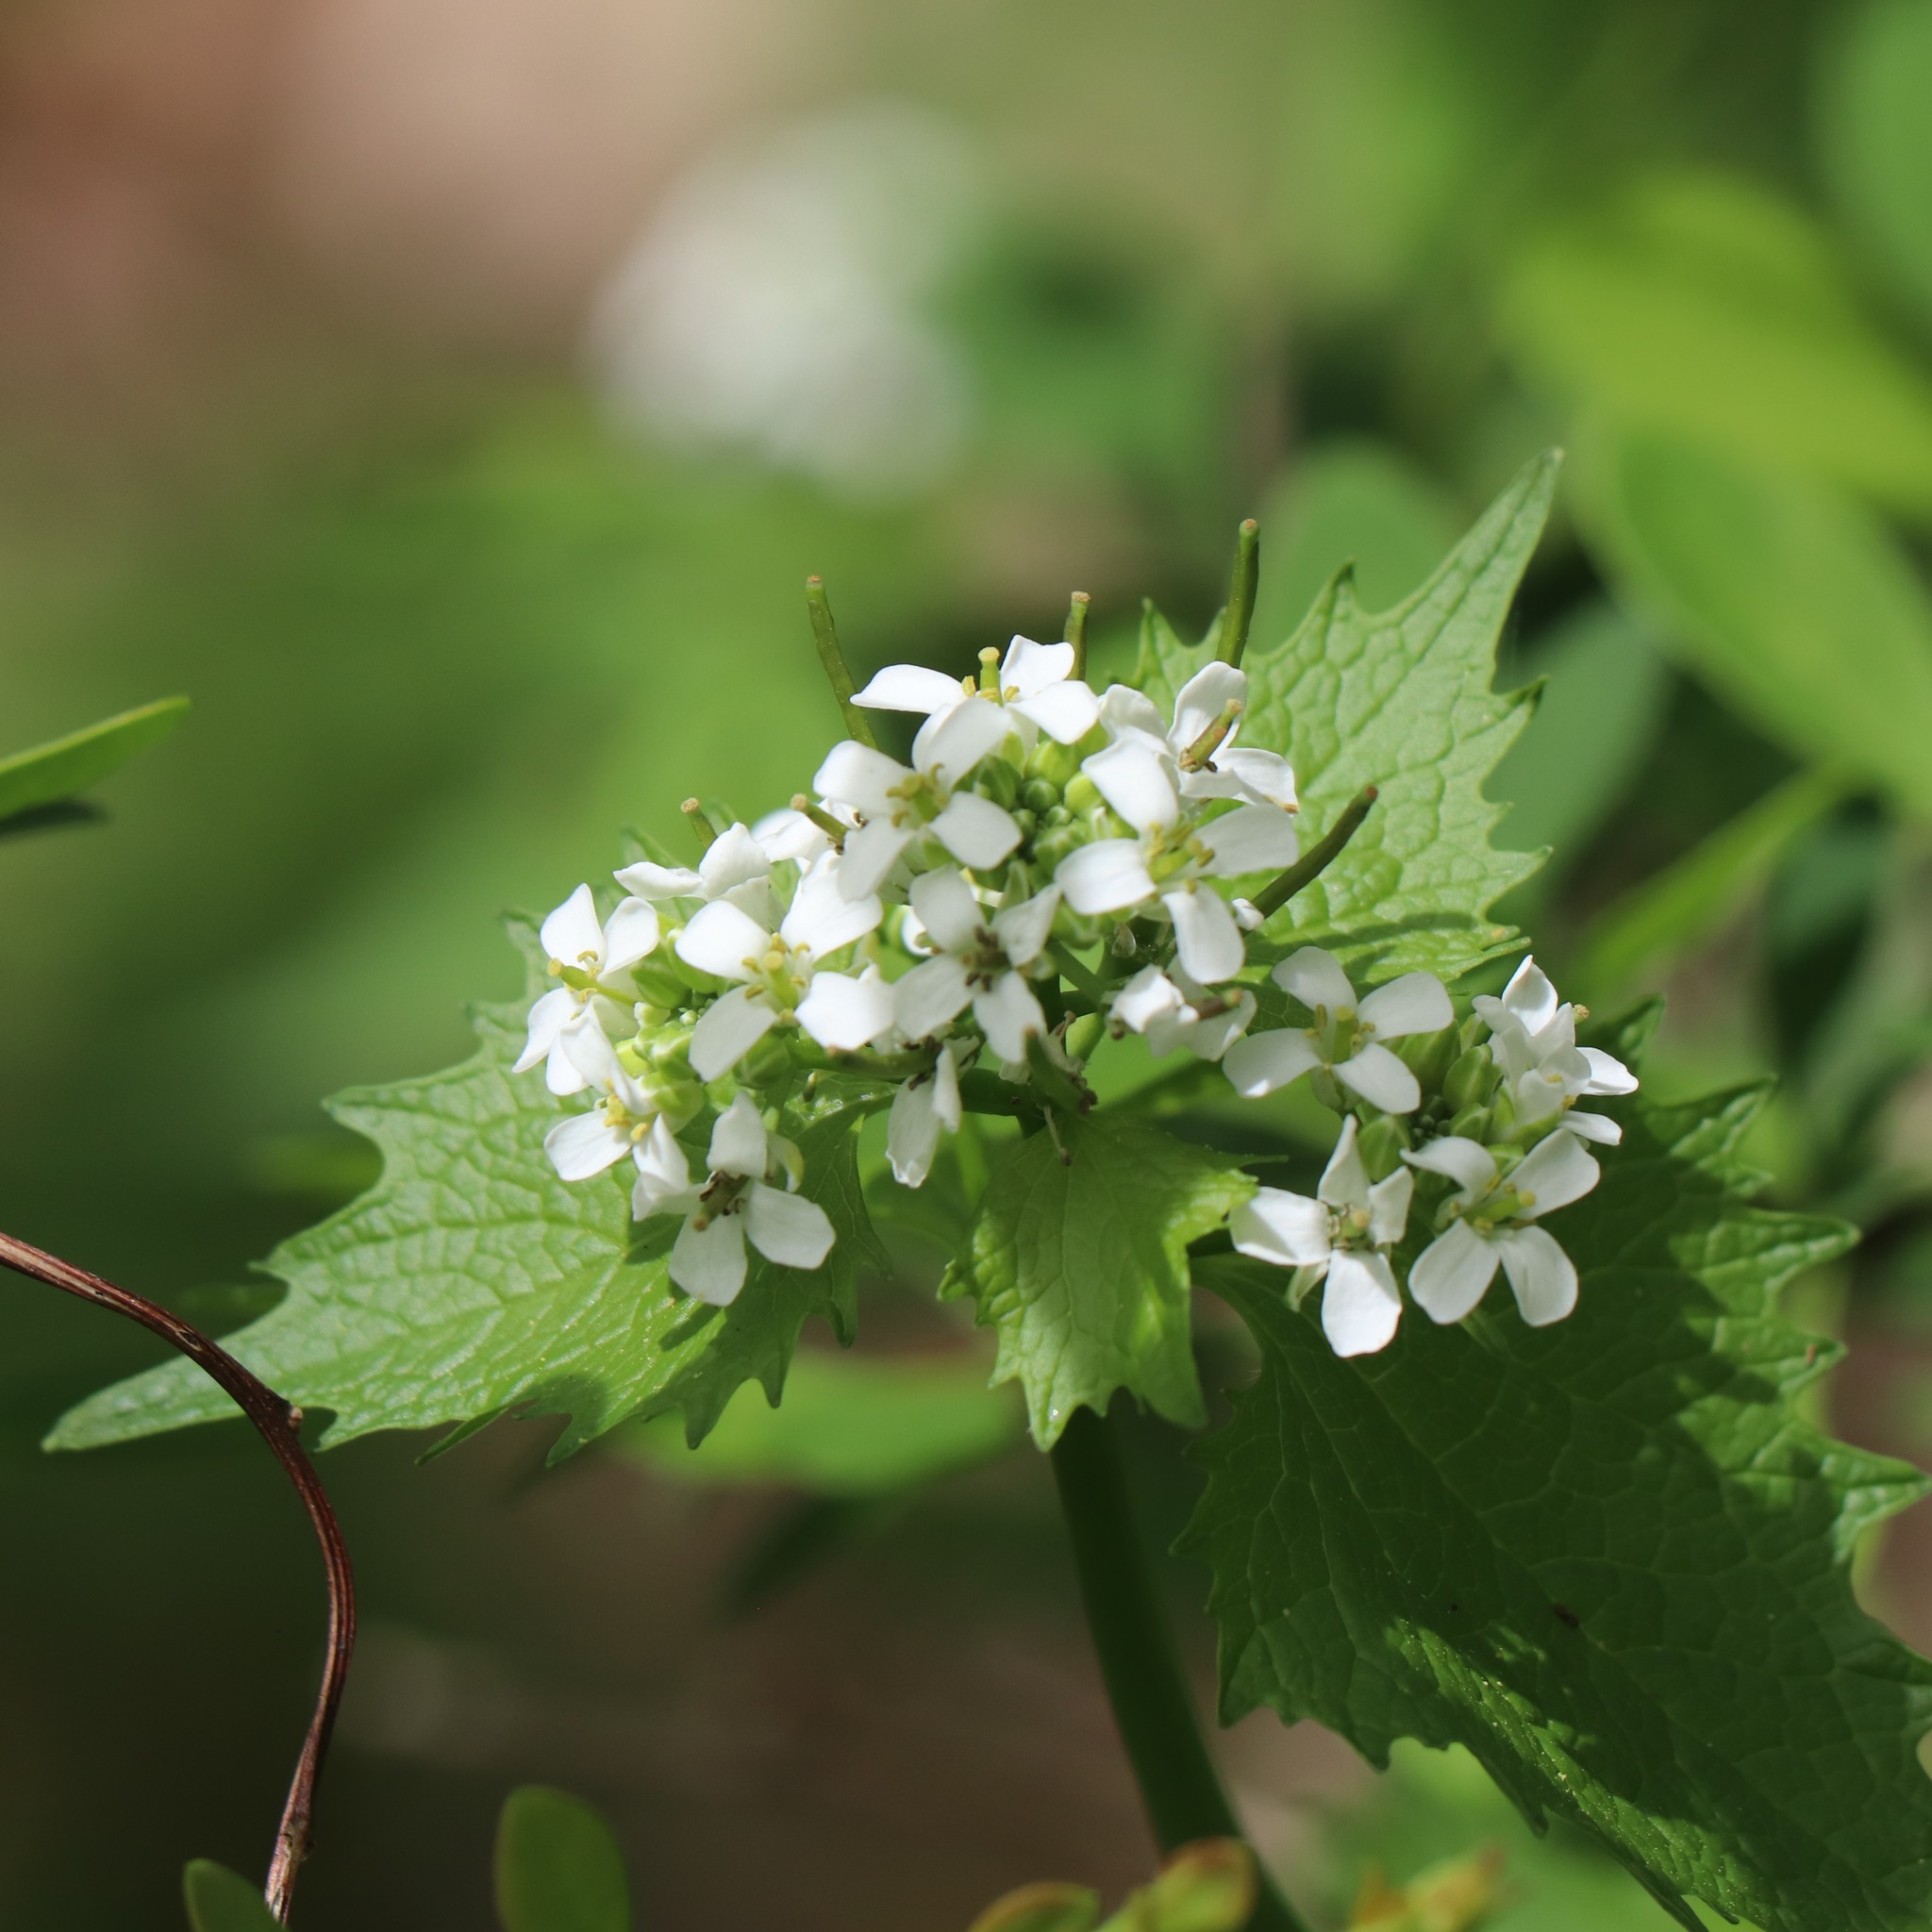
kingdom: Plantae
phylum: Tracheophyta
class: Magnoliopsida
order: Brassicales
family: Brassicaceae
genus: Alliaria
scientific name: Alliaria petiolata
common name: Garlic mustard
